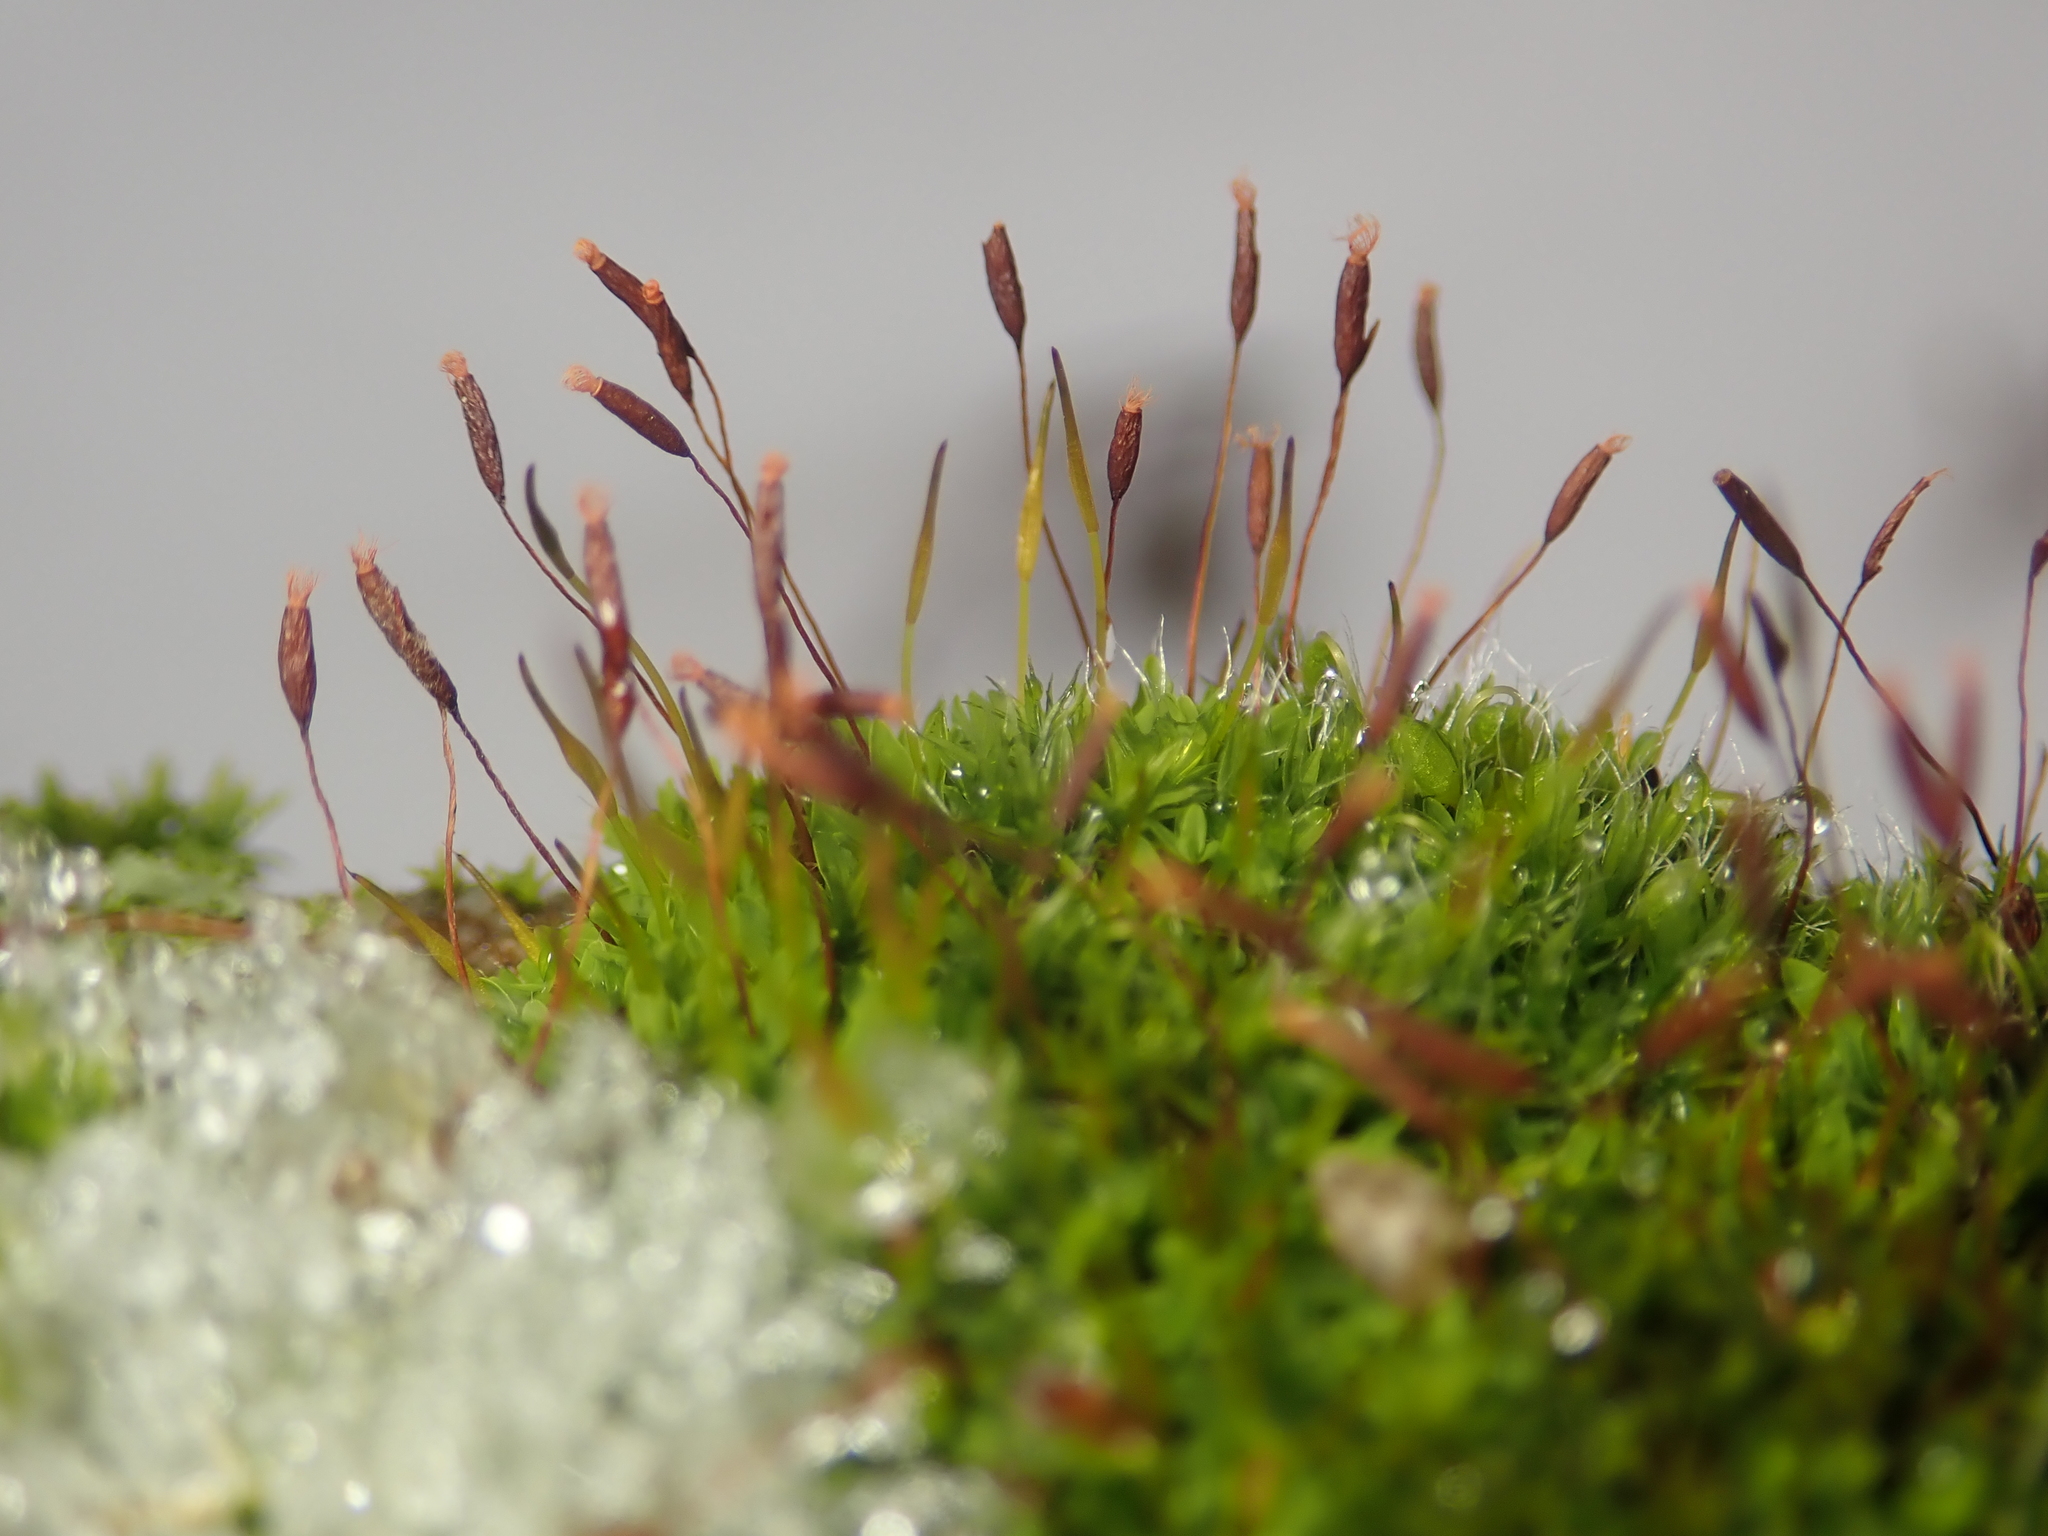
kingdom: Plantae
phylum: Bryophyta
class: Bryopsida
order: Pottiales
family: Pottiaceae
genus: Tortula
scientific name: Tortula muralis
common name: Wall screw-moss
